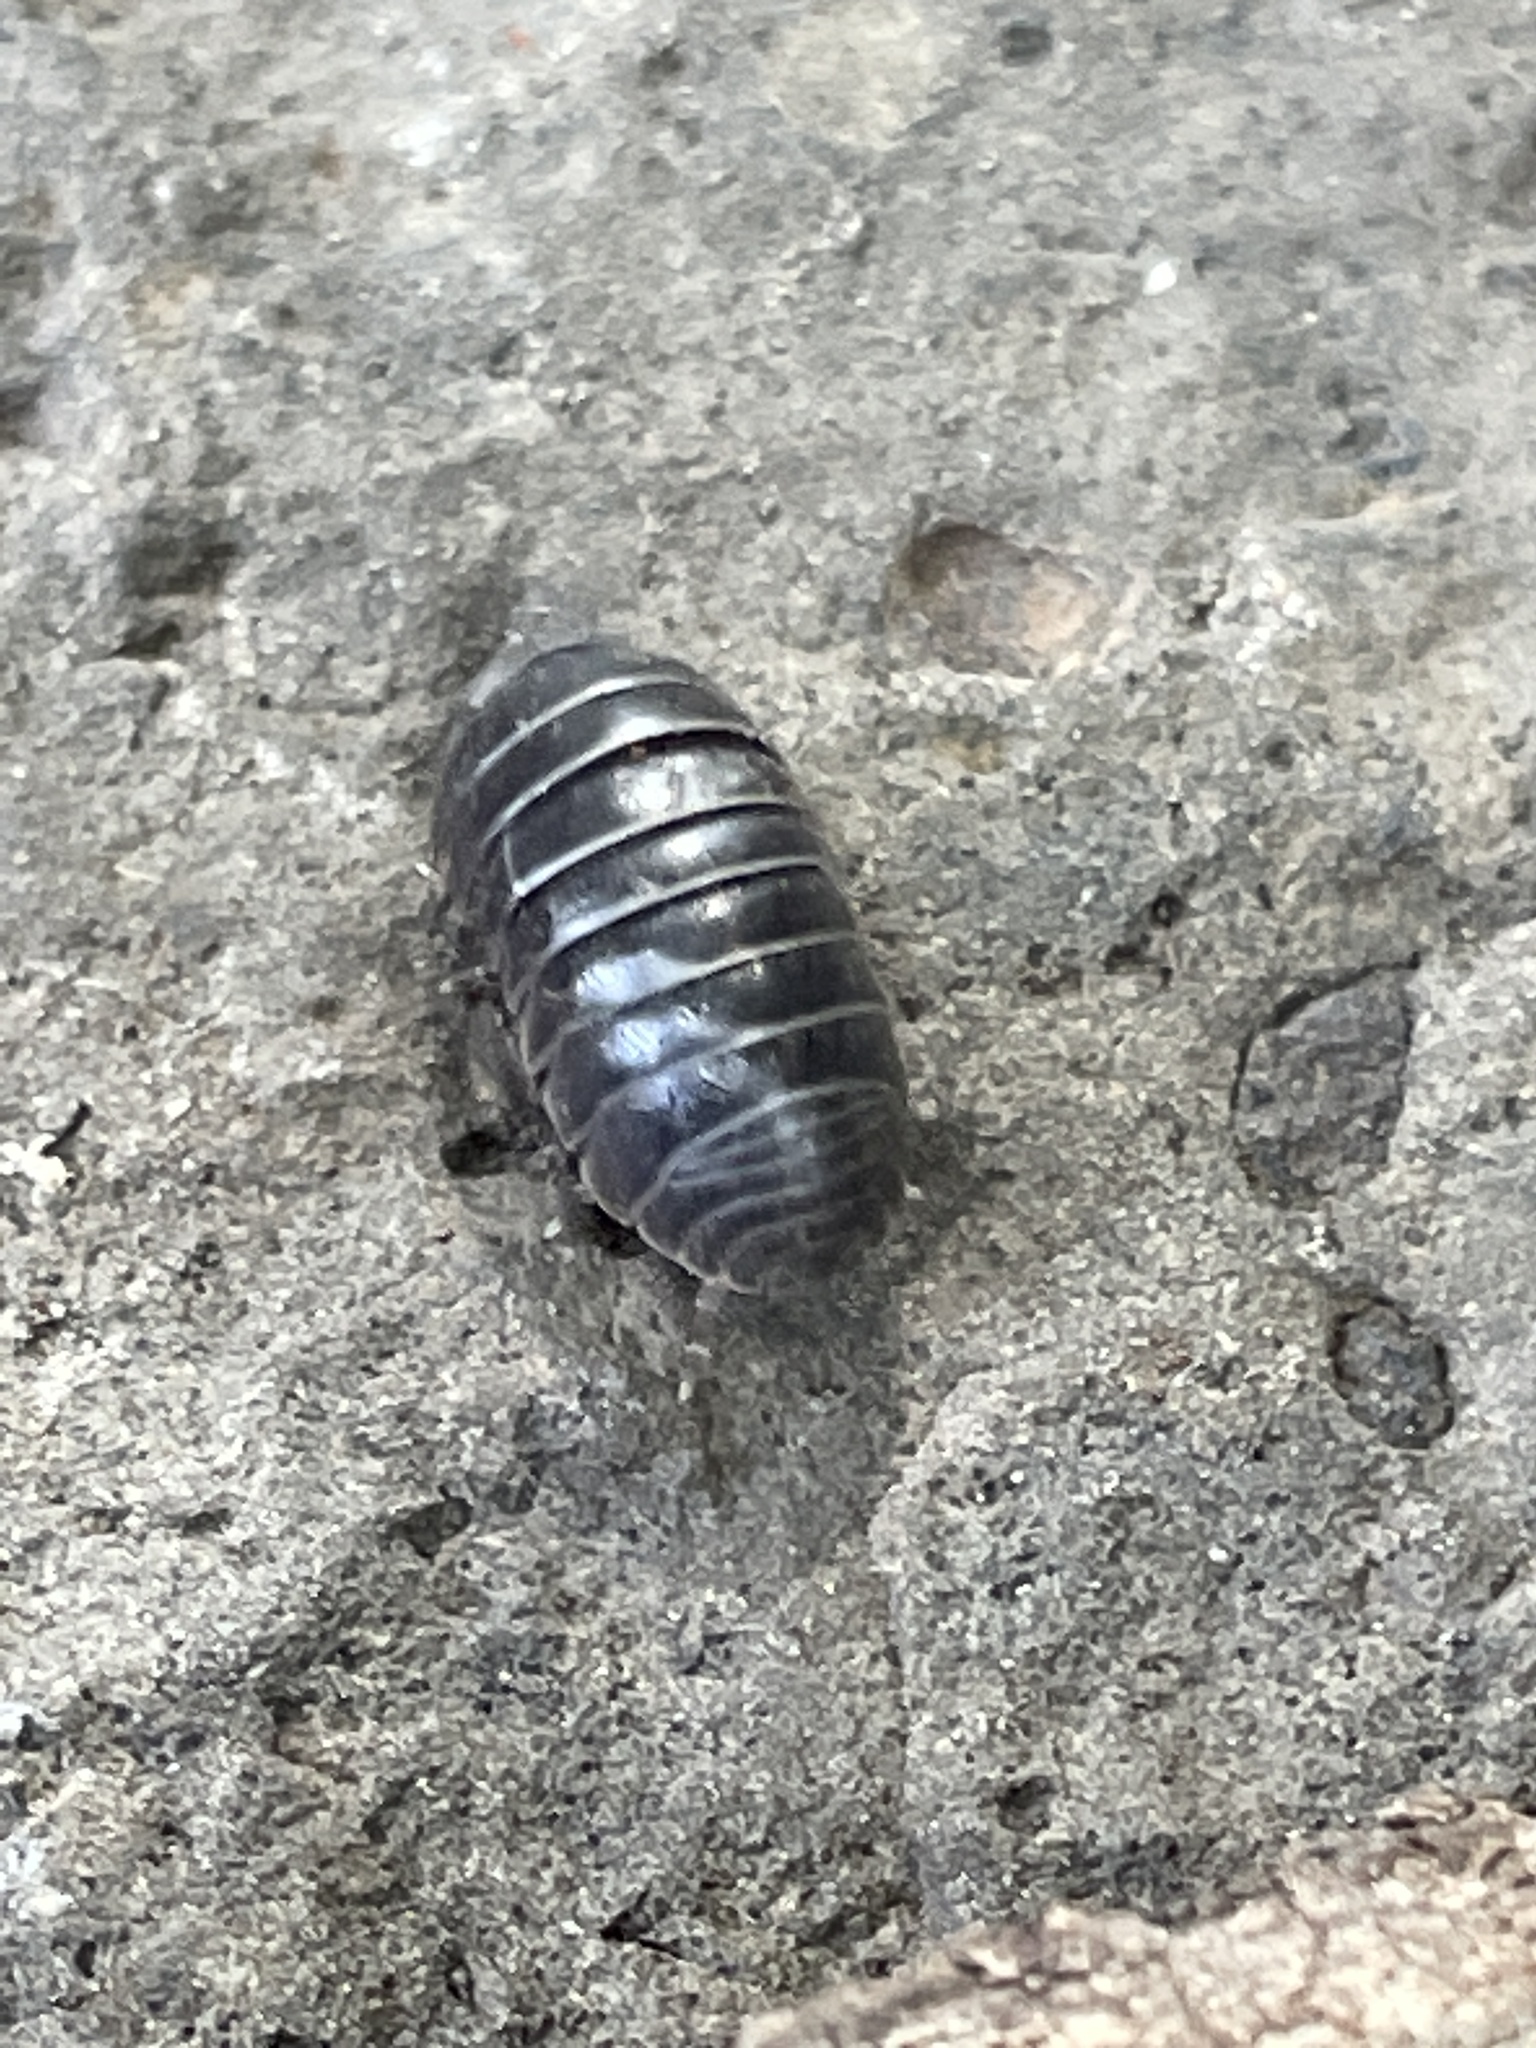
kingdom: Animalia
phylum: Arthropoda
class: Malacostraca
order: Isopoda
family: Armadillidiidae
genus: Armadillidium
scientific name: Armadillidium vulgare
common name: Common pill woodlouse
